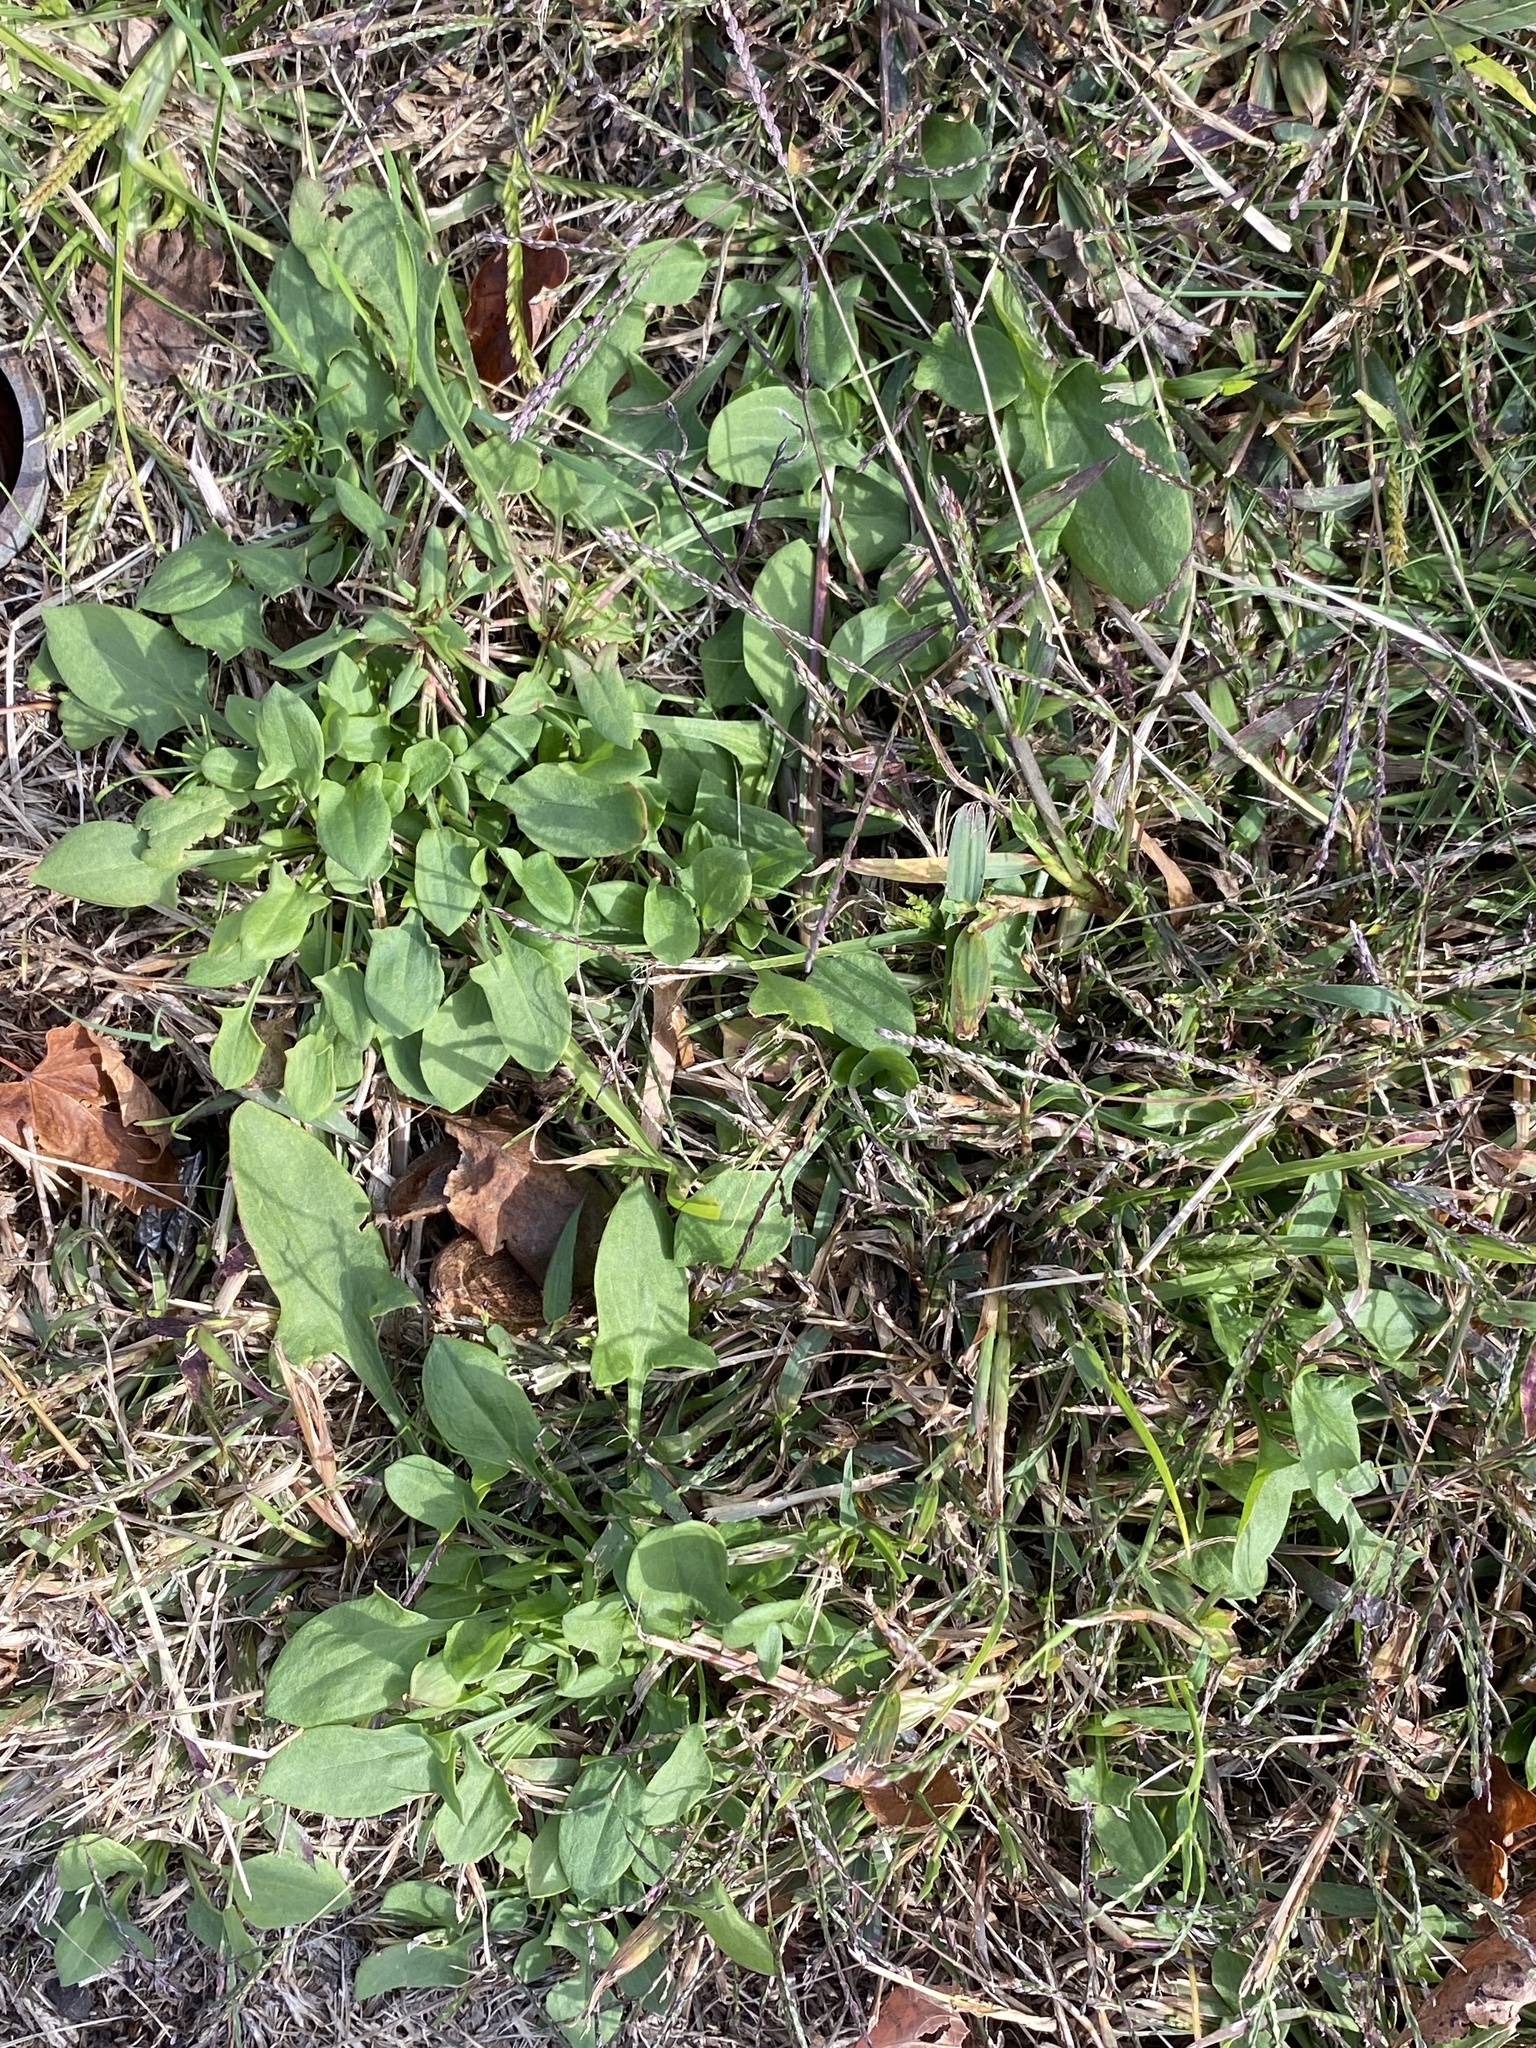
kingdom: Plantae
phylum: Tracheophyta
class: Magnoliopsida
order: Caryophyllales
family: Polygonaceae
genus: Rumex
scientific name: Rumex acetosella
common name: Common sheep sorrel
